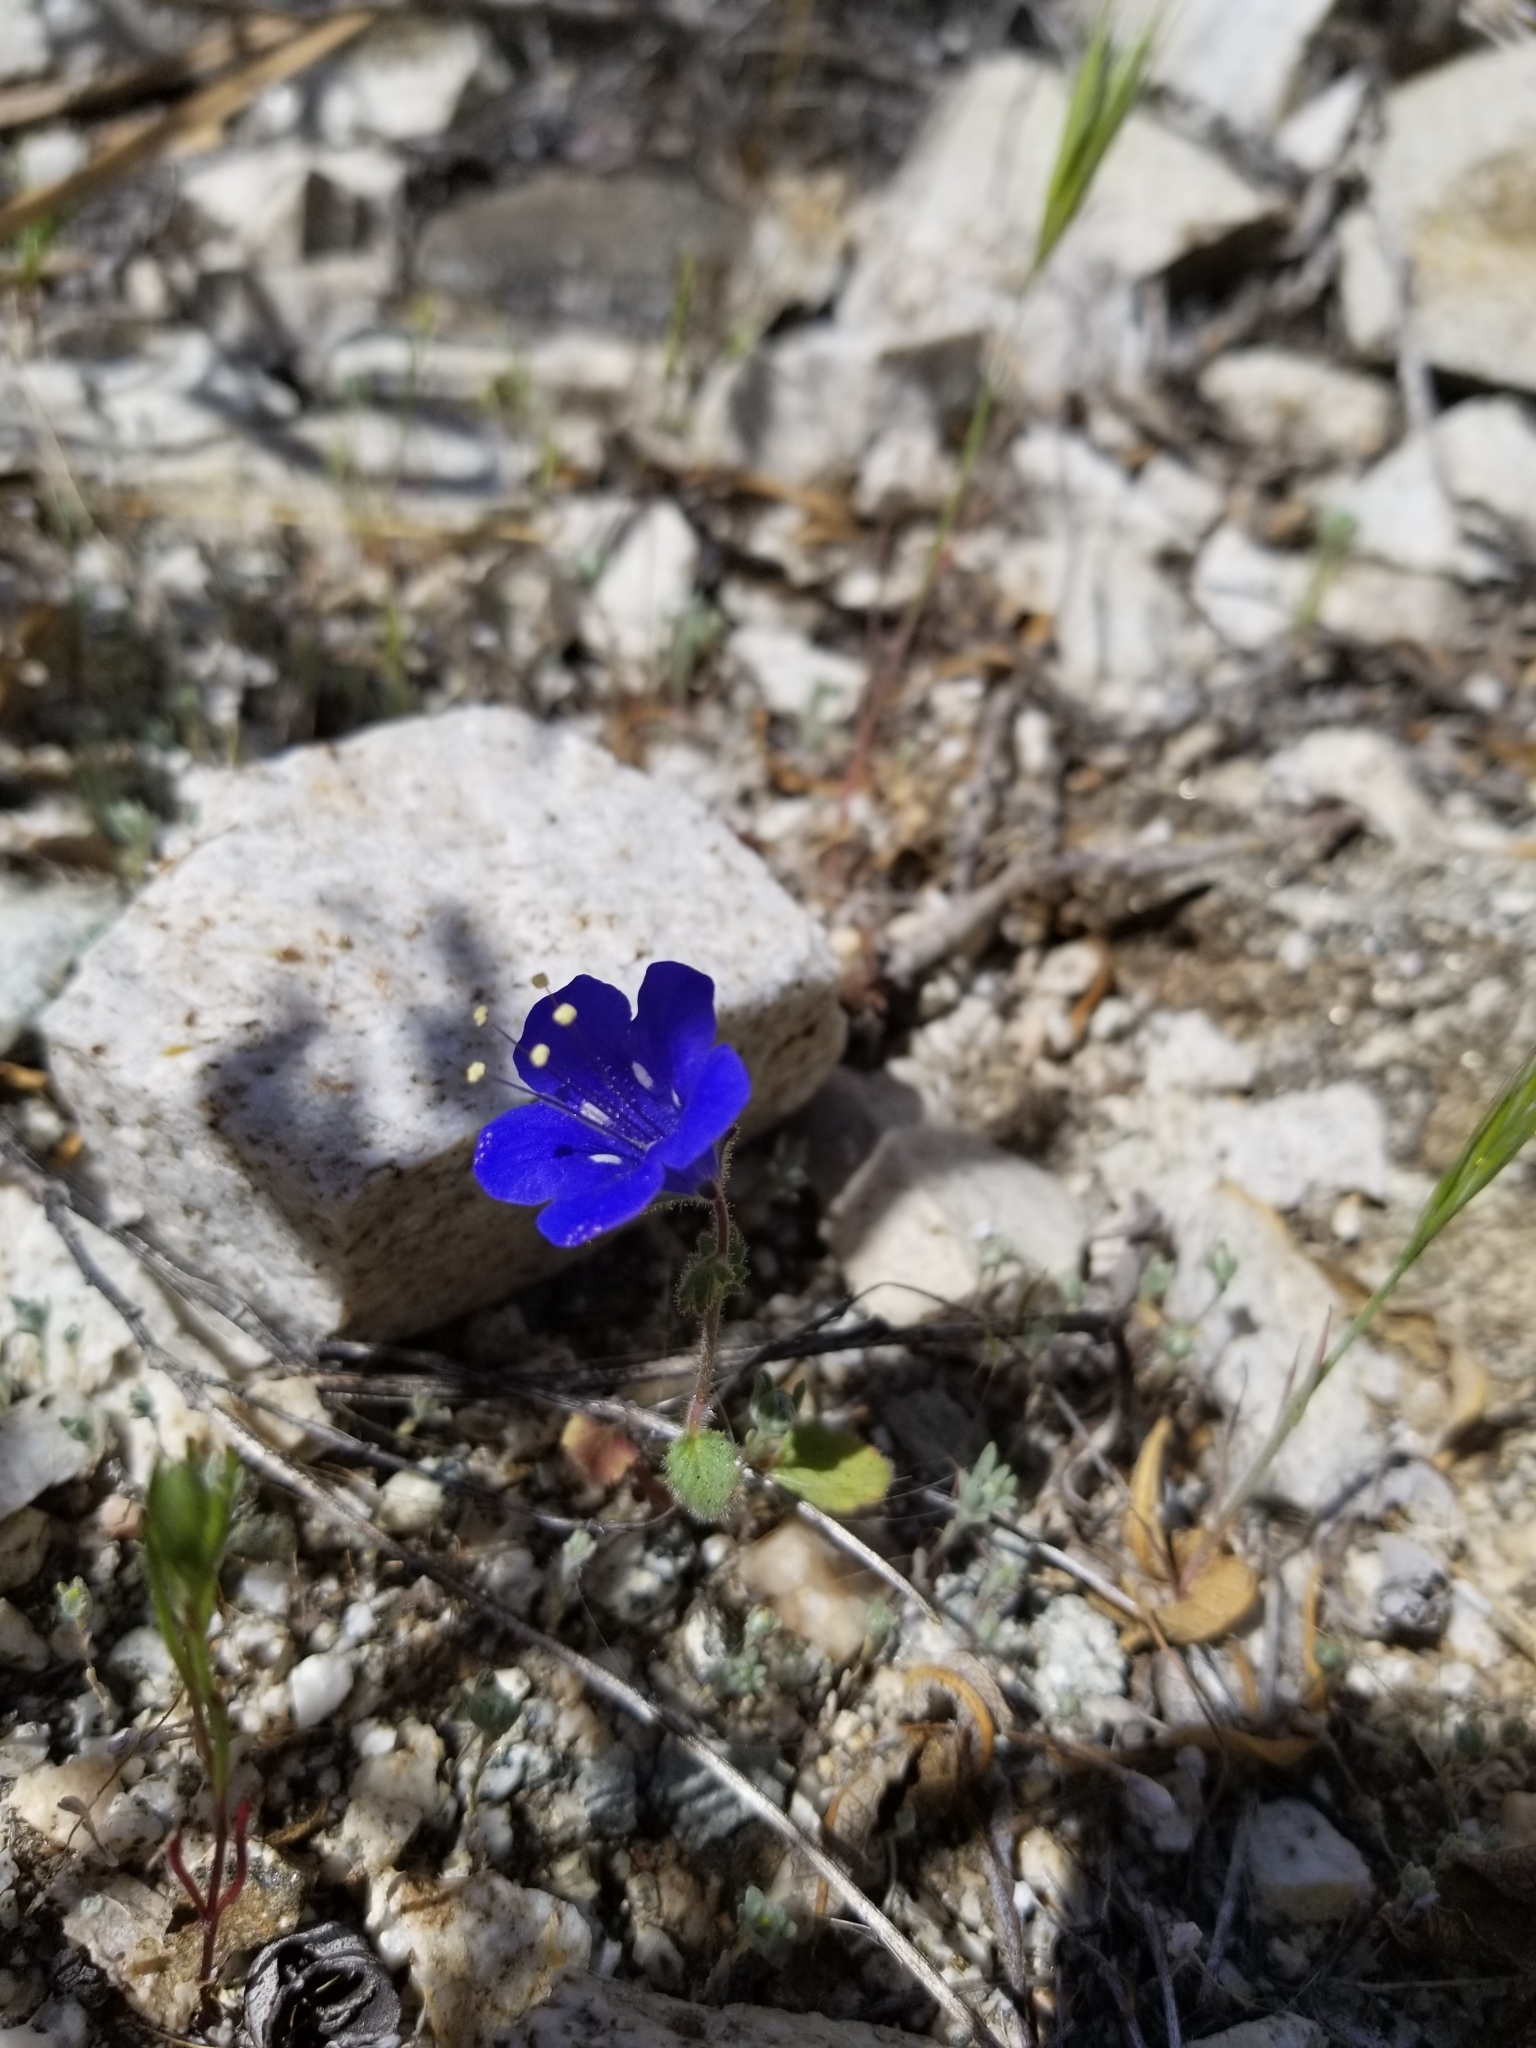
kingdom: Plantae
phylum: Tracheophyta
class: Magnoliopsida
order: Boraginales
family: Hydrophyllaceae
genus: Phacelia
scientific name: Phacelia campanularia
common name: California bluebell
